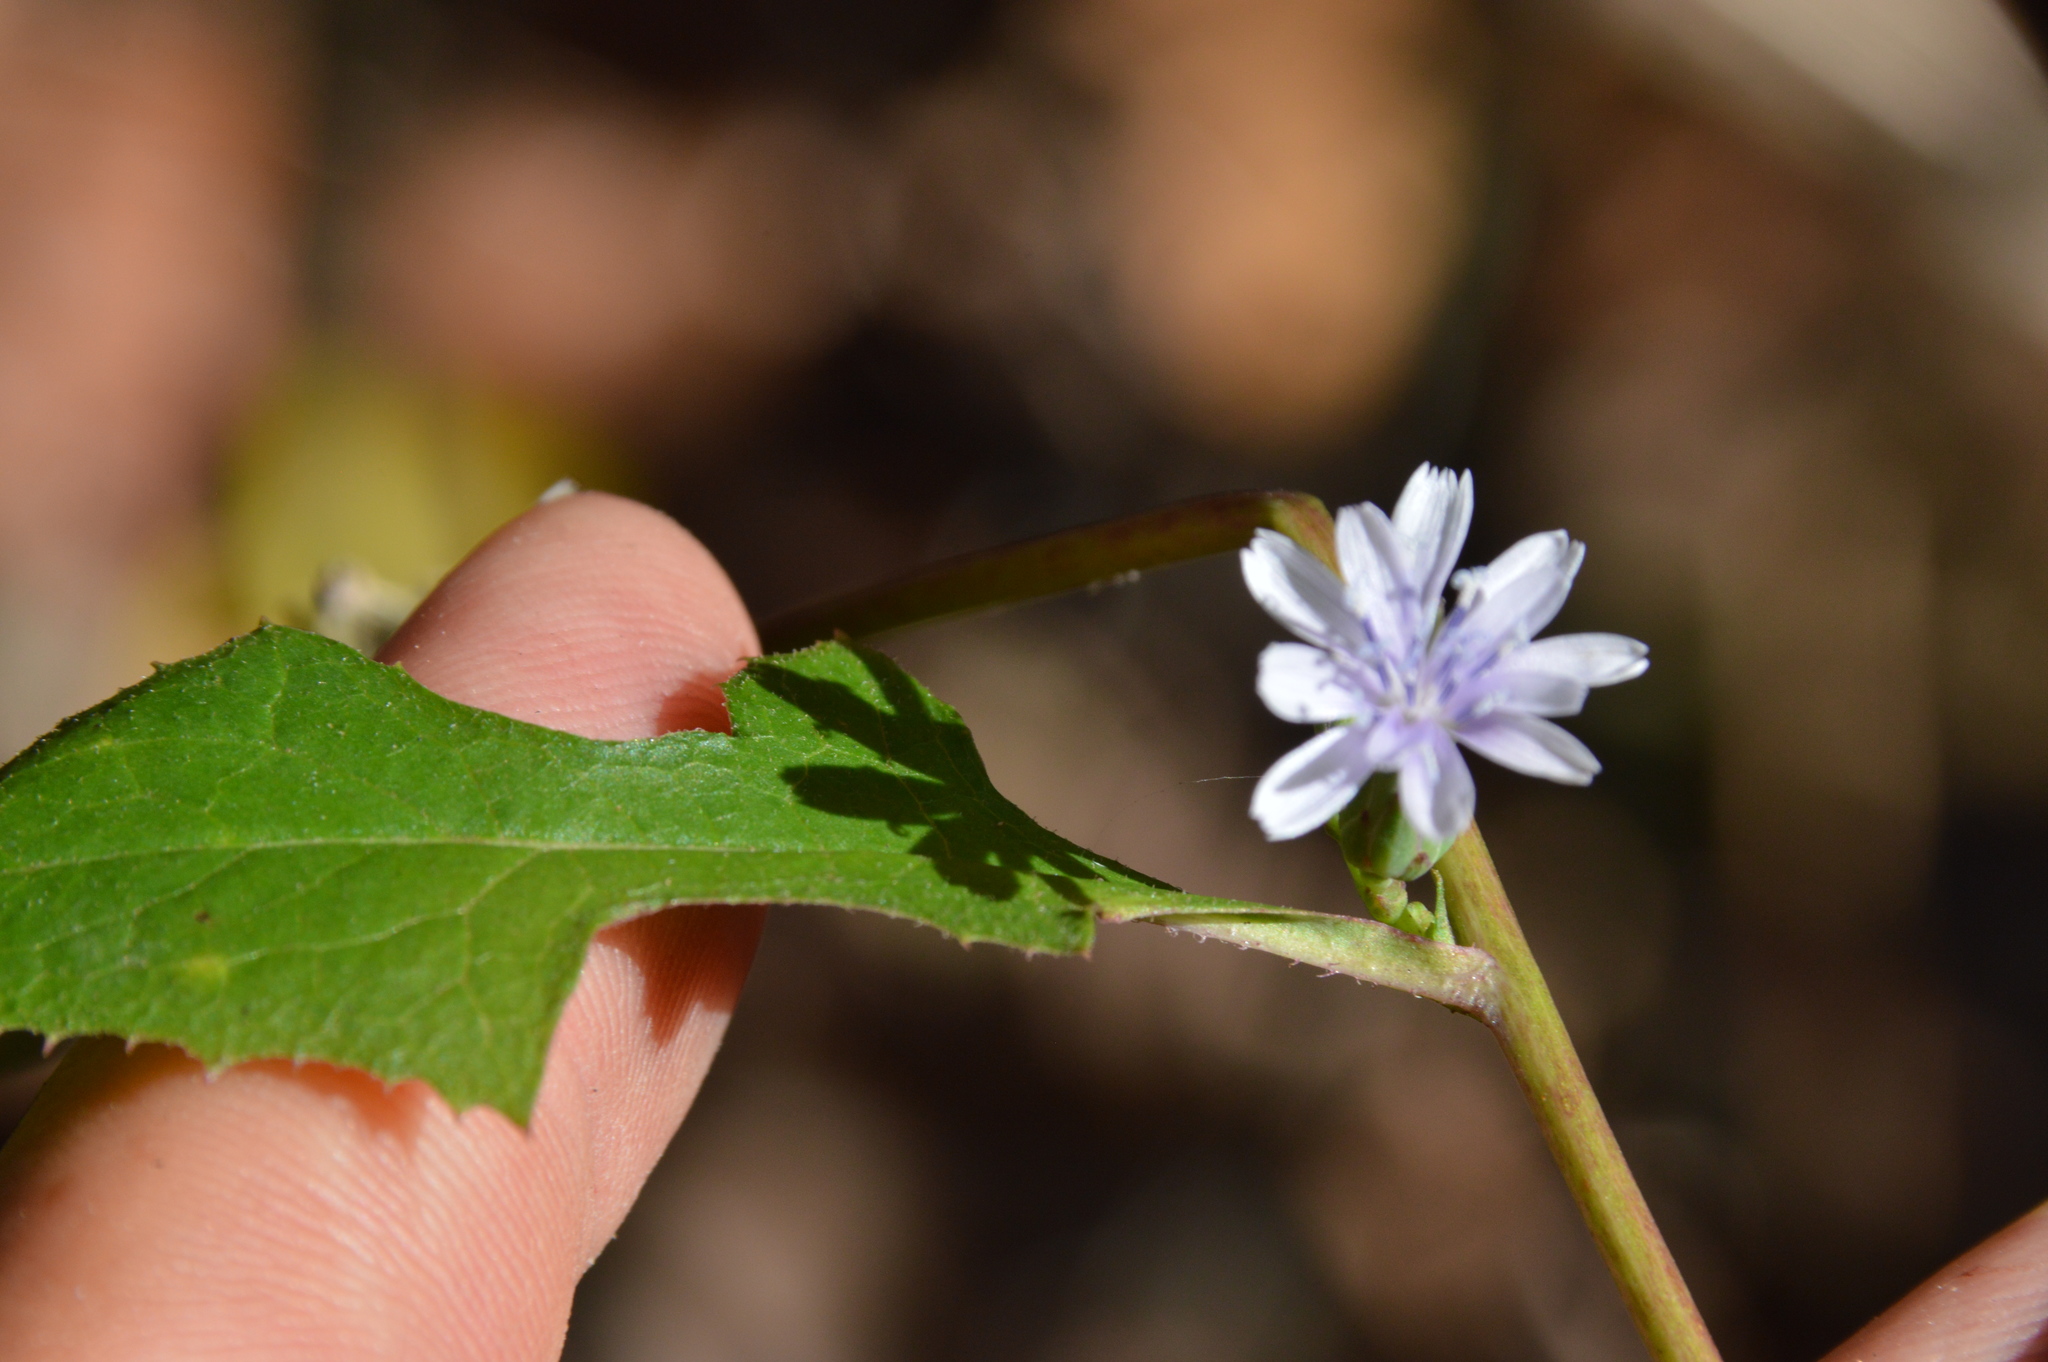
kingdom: Plantae
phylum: Tracheophyta
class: Magnoliopsida
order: Asterales
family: Asteraceae
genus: Lactuca
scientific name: Lactuca floridana
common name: Woodland lettuce
